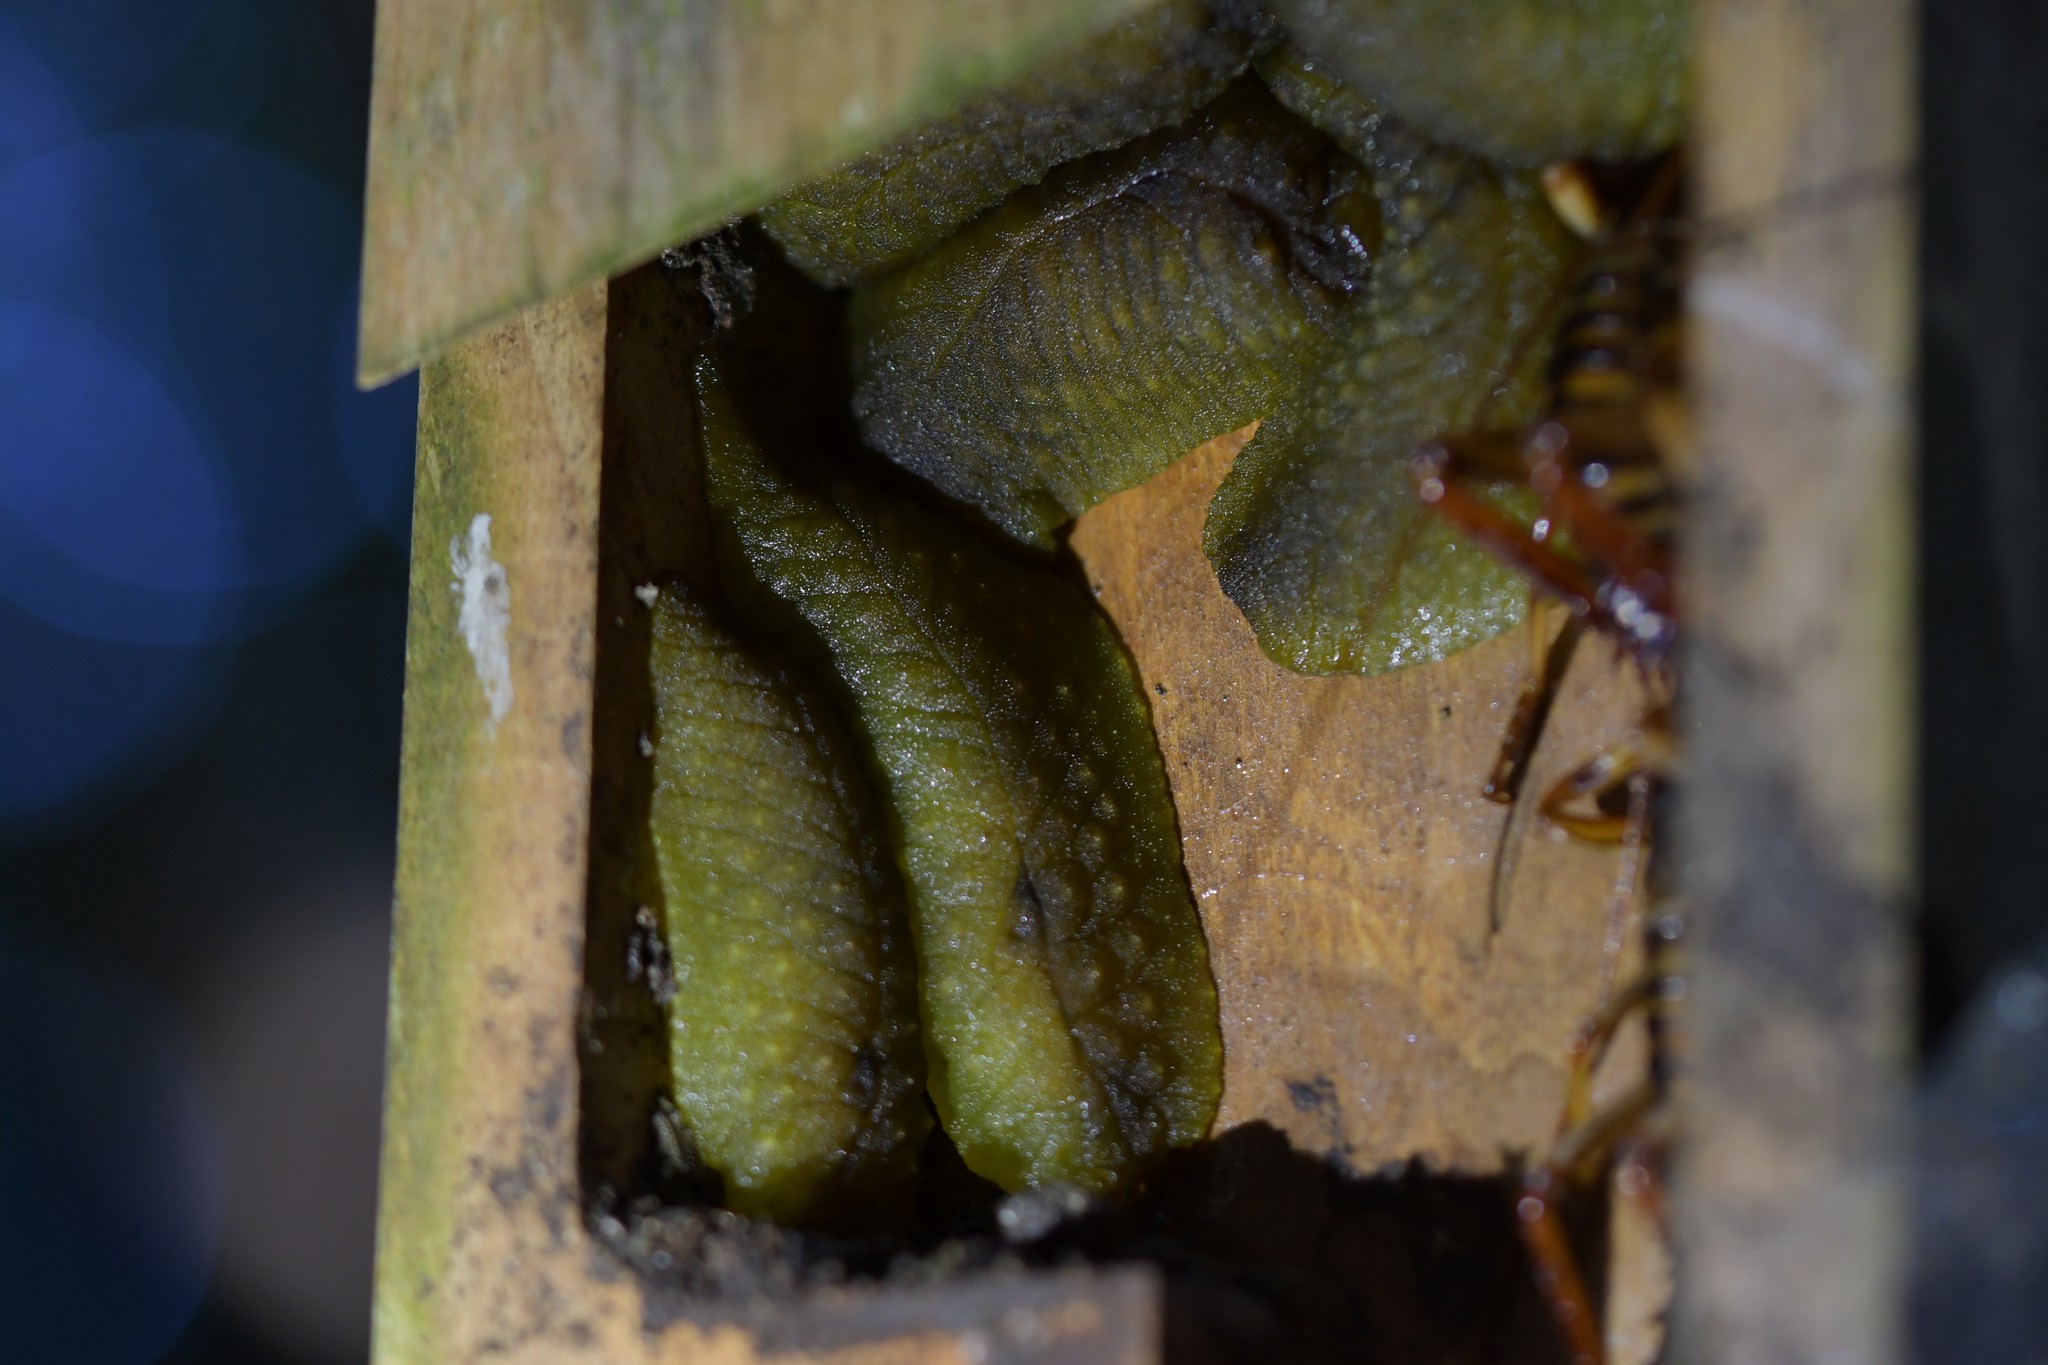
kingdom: Animalia
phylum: Mollusca
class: Gastropoda
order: Stylommatophora
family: Athoracophoridae
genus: Athoracophorus
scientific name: Athoracophorus papillatus
